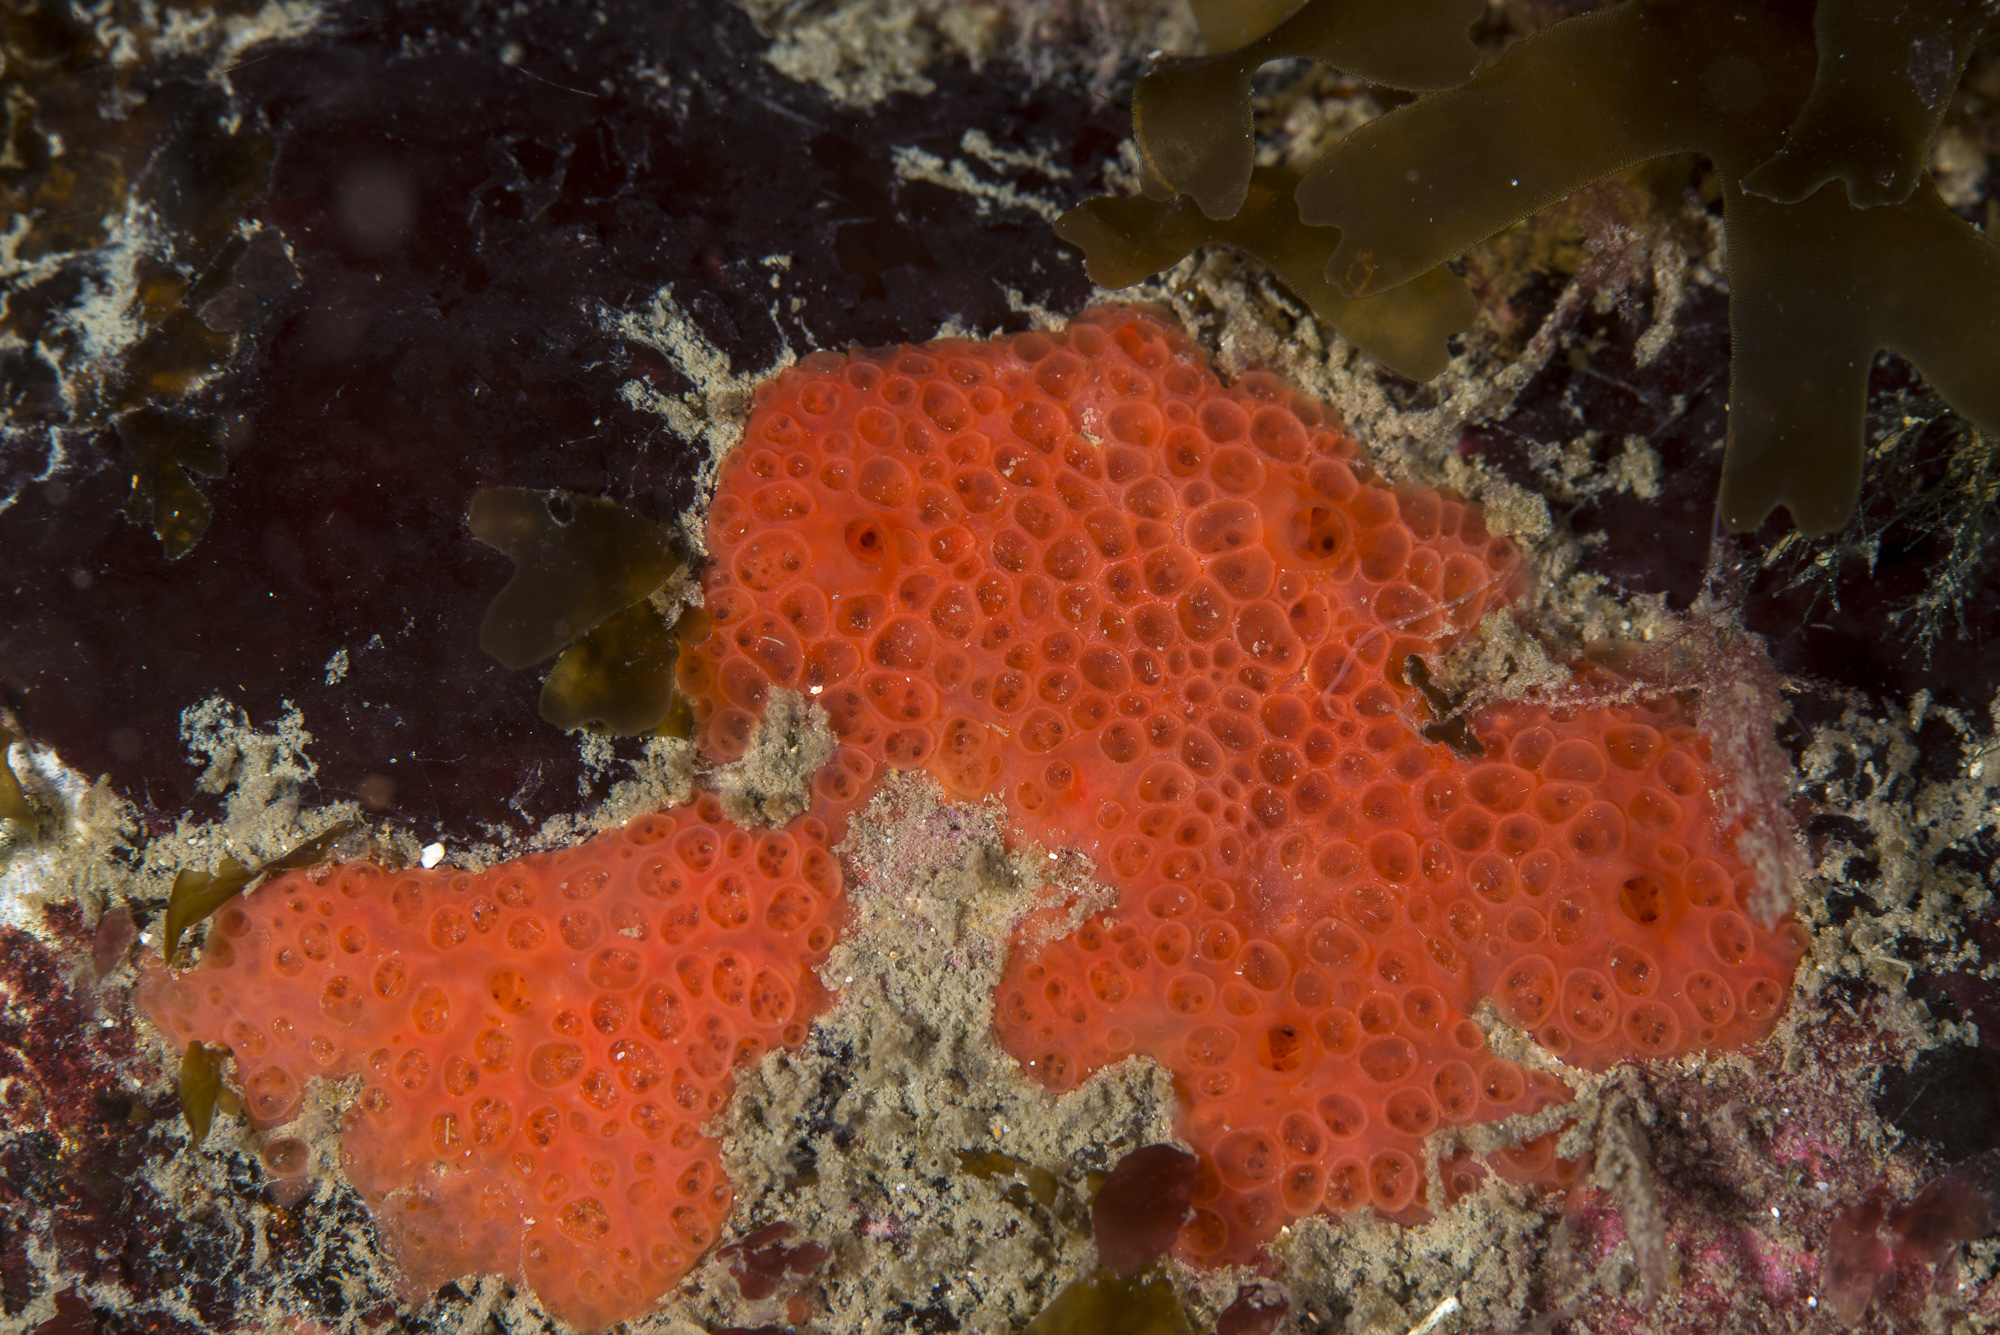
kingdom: Animalia
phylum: Porifera
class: Demospongiae
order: Poecilosclerida
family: Hymedesmiidae
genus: Phorbas
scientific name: Phorbas fictitius
